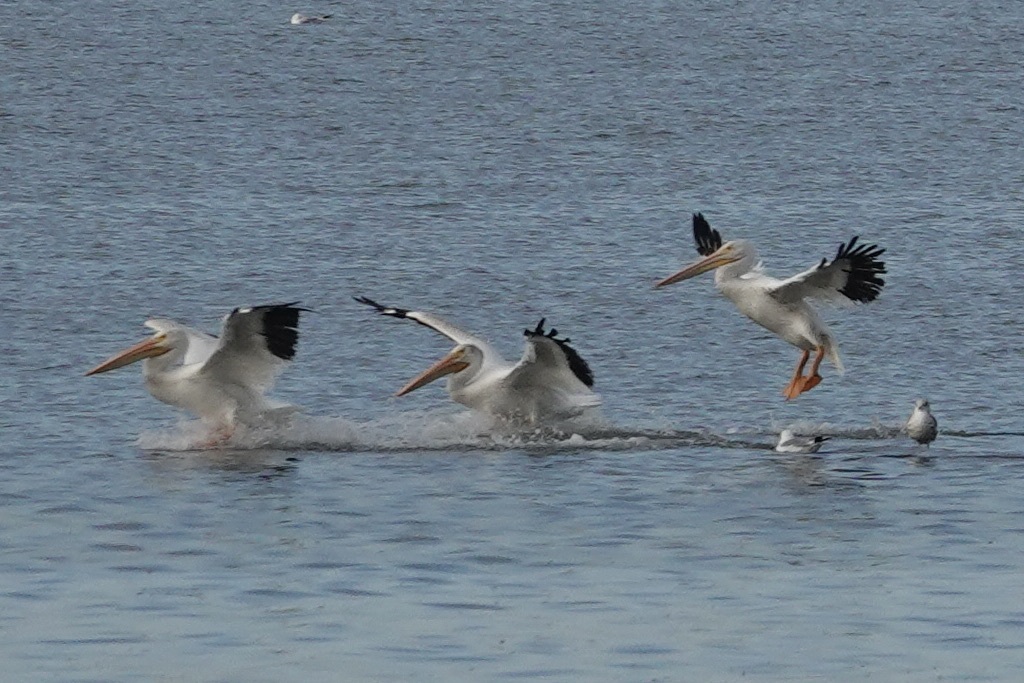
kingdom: Animalia
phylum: Chordata
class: Aves
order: Pelecaniformes
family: Pelecanidae
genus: Pelecanus
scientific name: Pelecanus erythrorhynchos
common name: American white pelican
